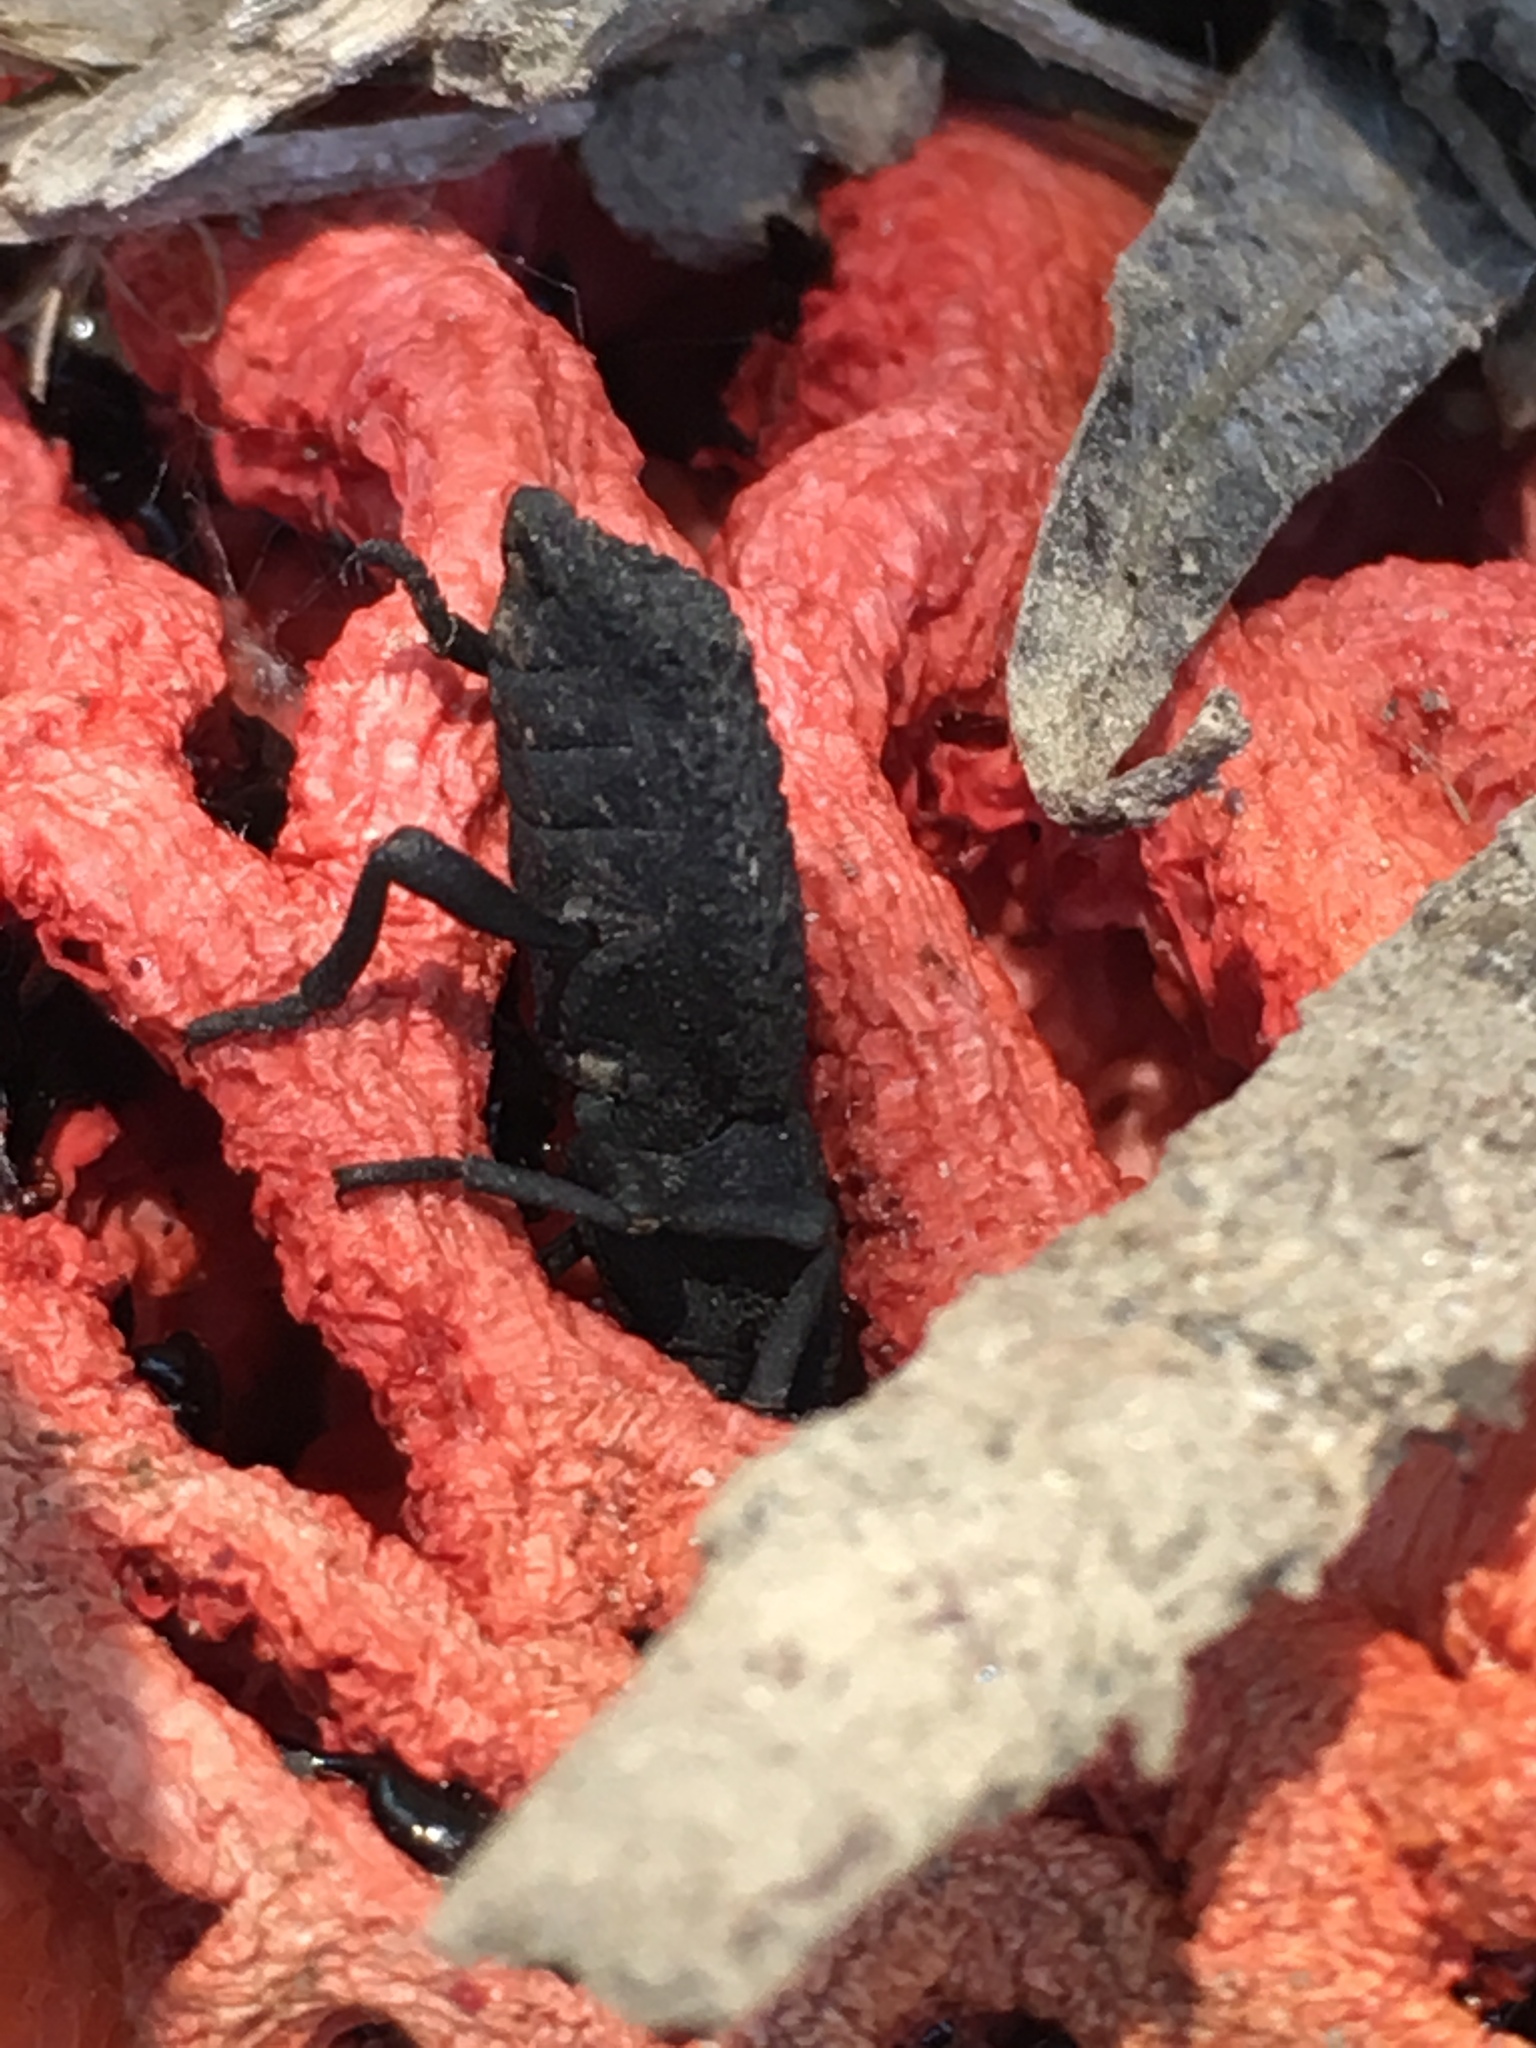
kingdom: Animalia
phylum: Arthropoda
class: Insecta
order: Coleoptera
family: Zopheridae
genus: Phloeodes
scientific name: Phloeodes diabolicus
